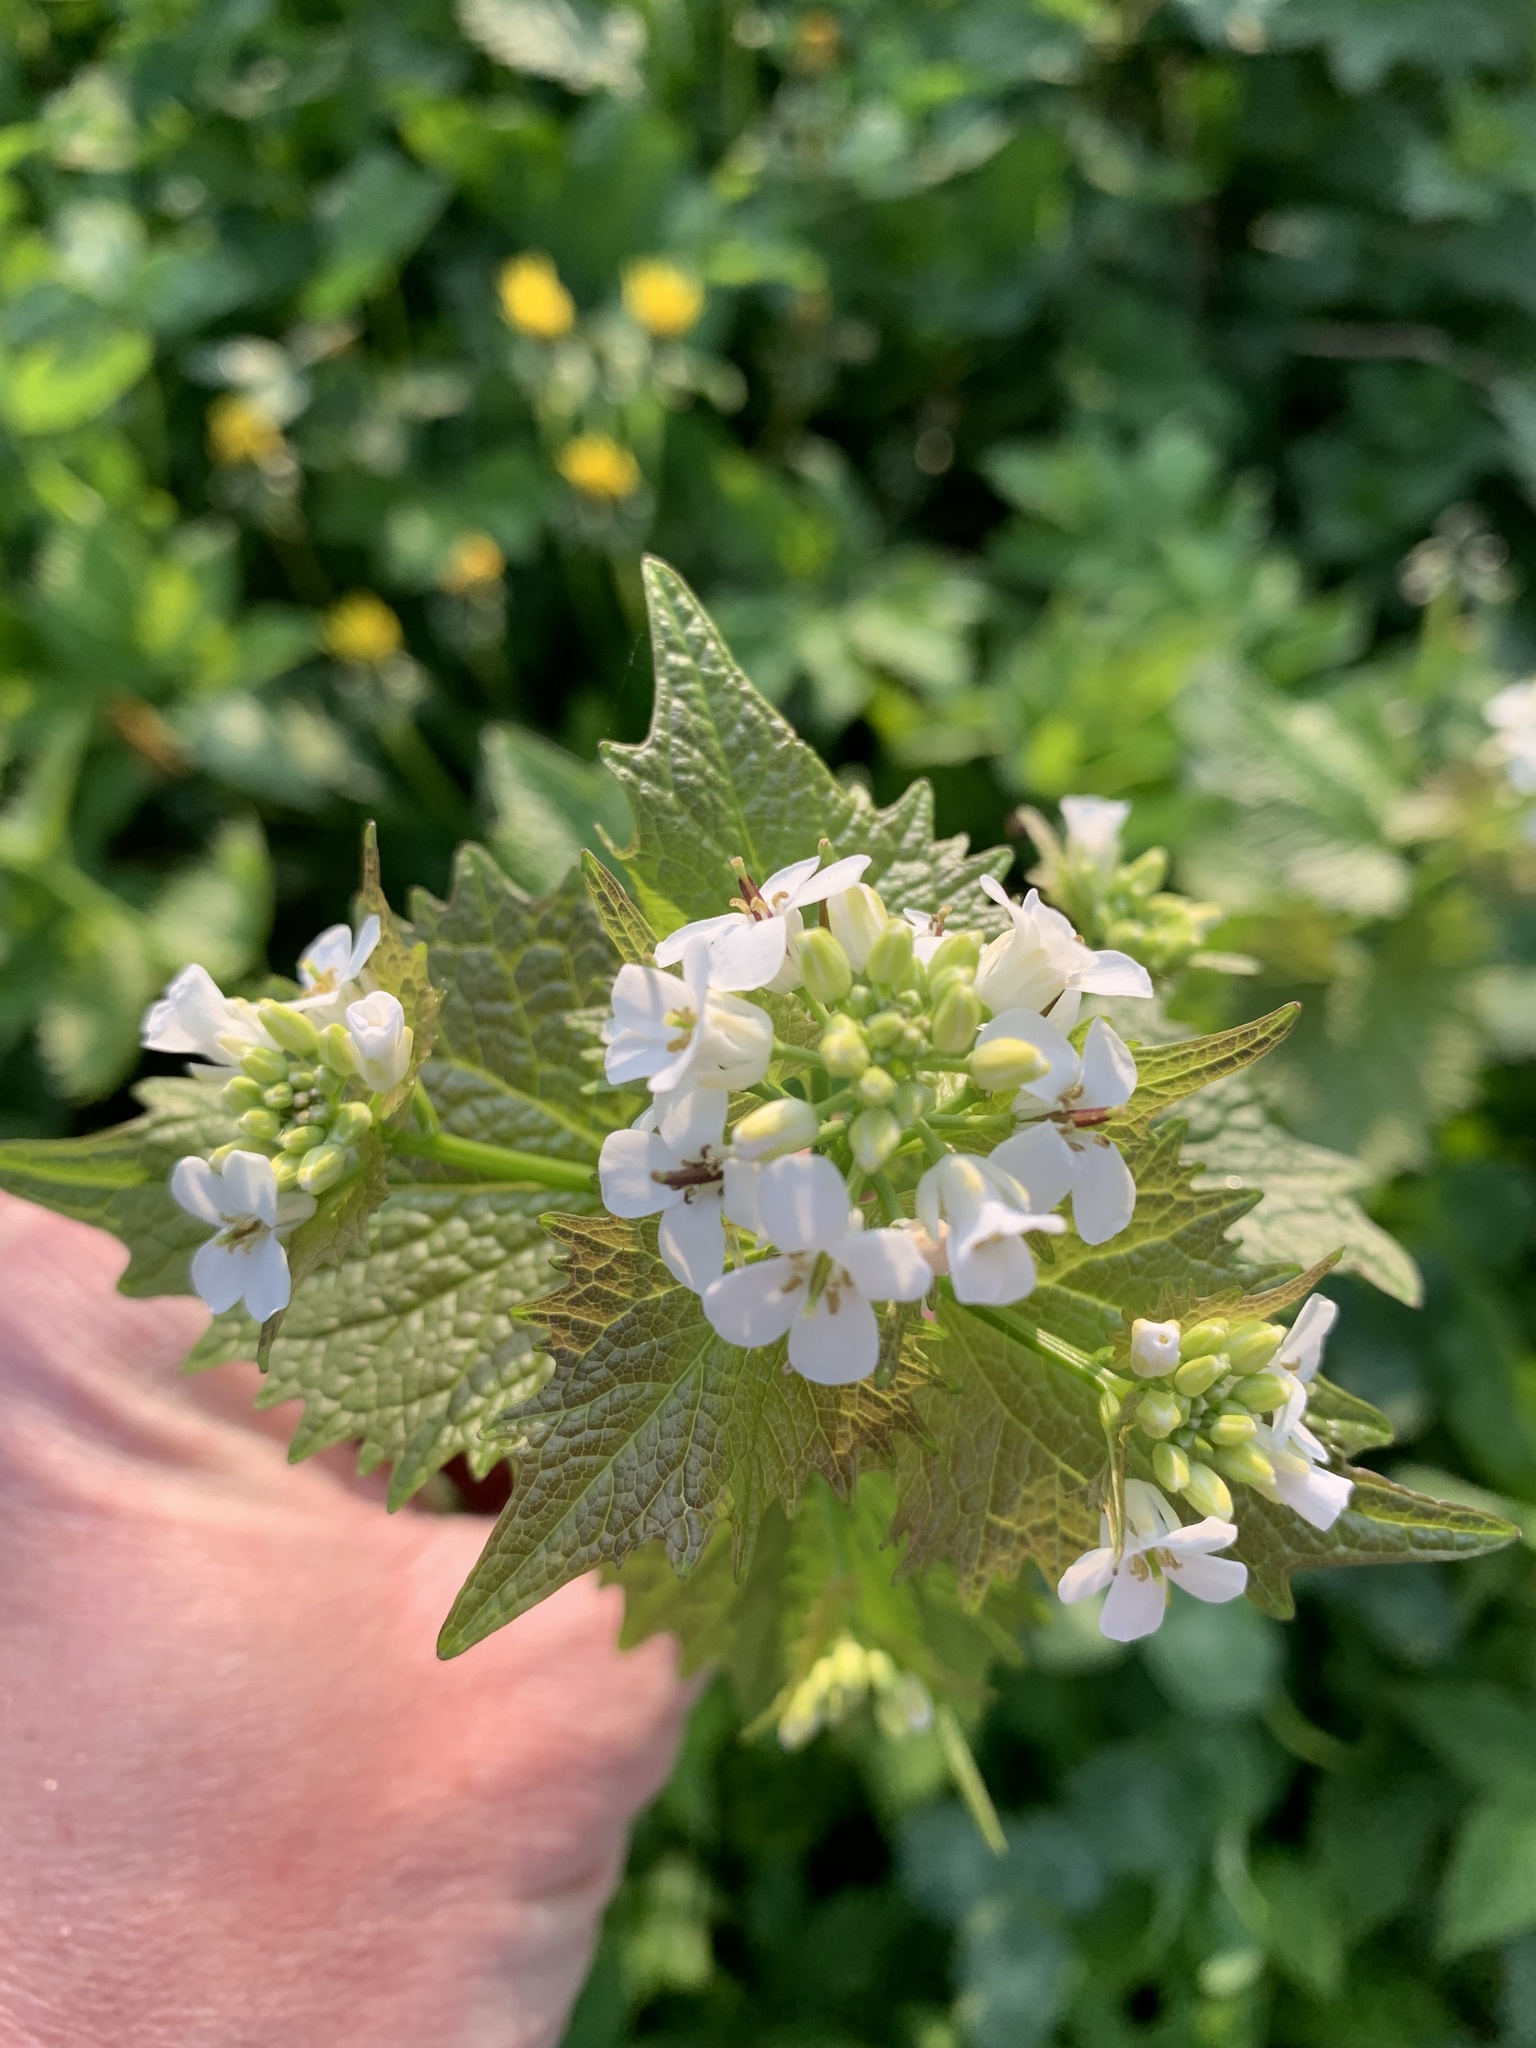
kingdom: Plantae
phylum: Tracheophyta
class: Magnoliopsida
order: Brassicales
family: Brassicaceae
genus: Alliaria
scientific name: Alliaria petiolata
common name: Garlic mustard
